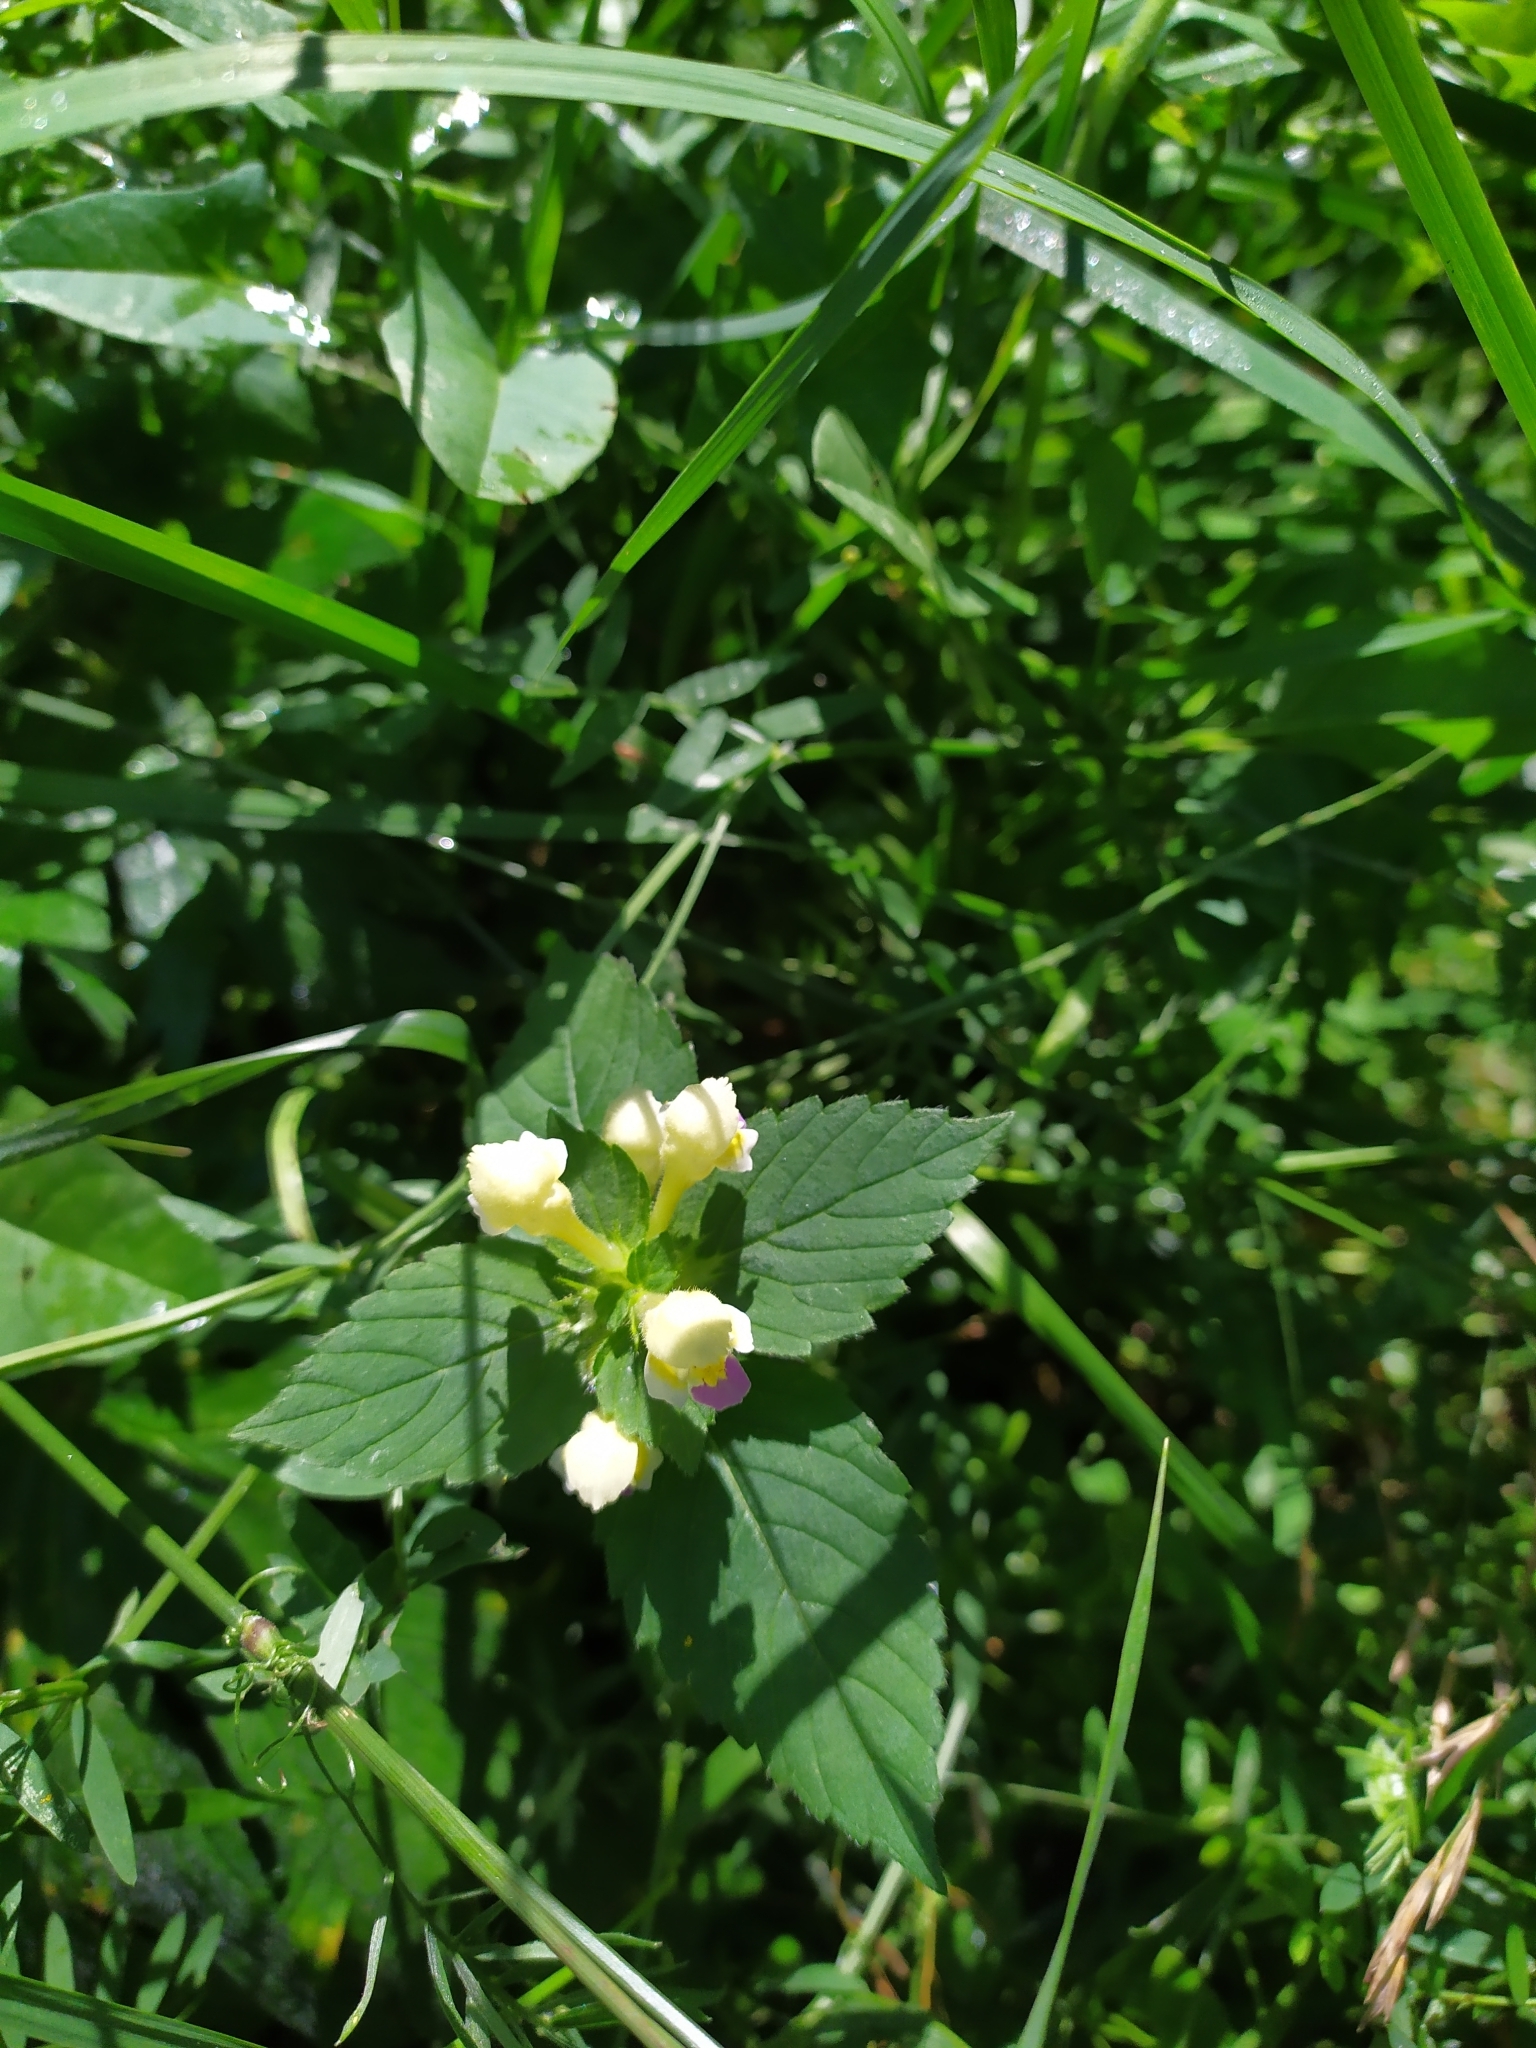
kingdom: Plantae
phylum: Tracheophyta
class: Magnoliopsida
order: Lamiales
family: Lamiaceae
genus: Galeopsis
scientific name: Galeopsis speciosa
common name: Large-flowered hemp-nettle
